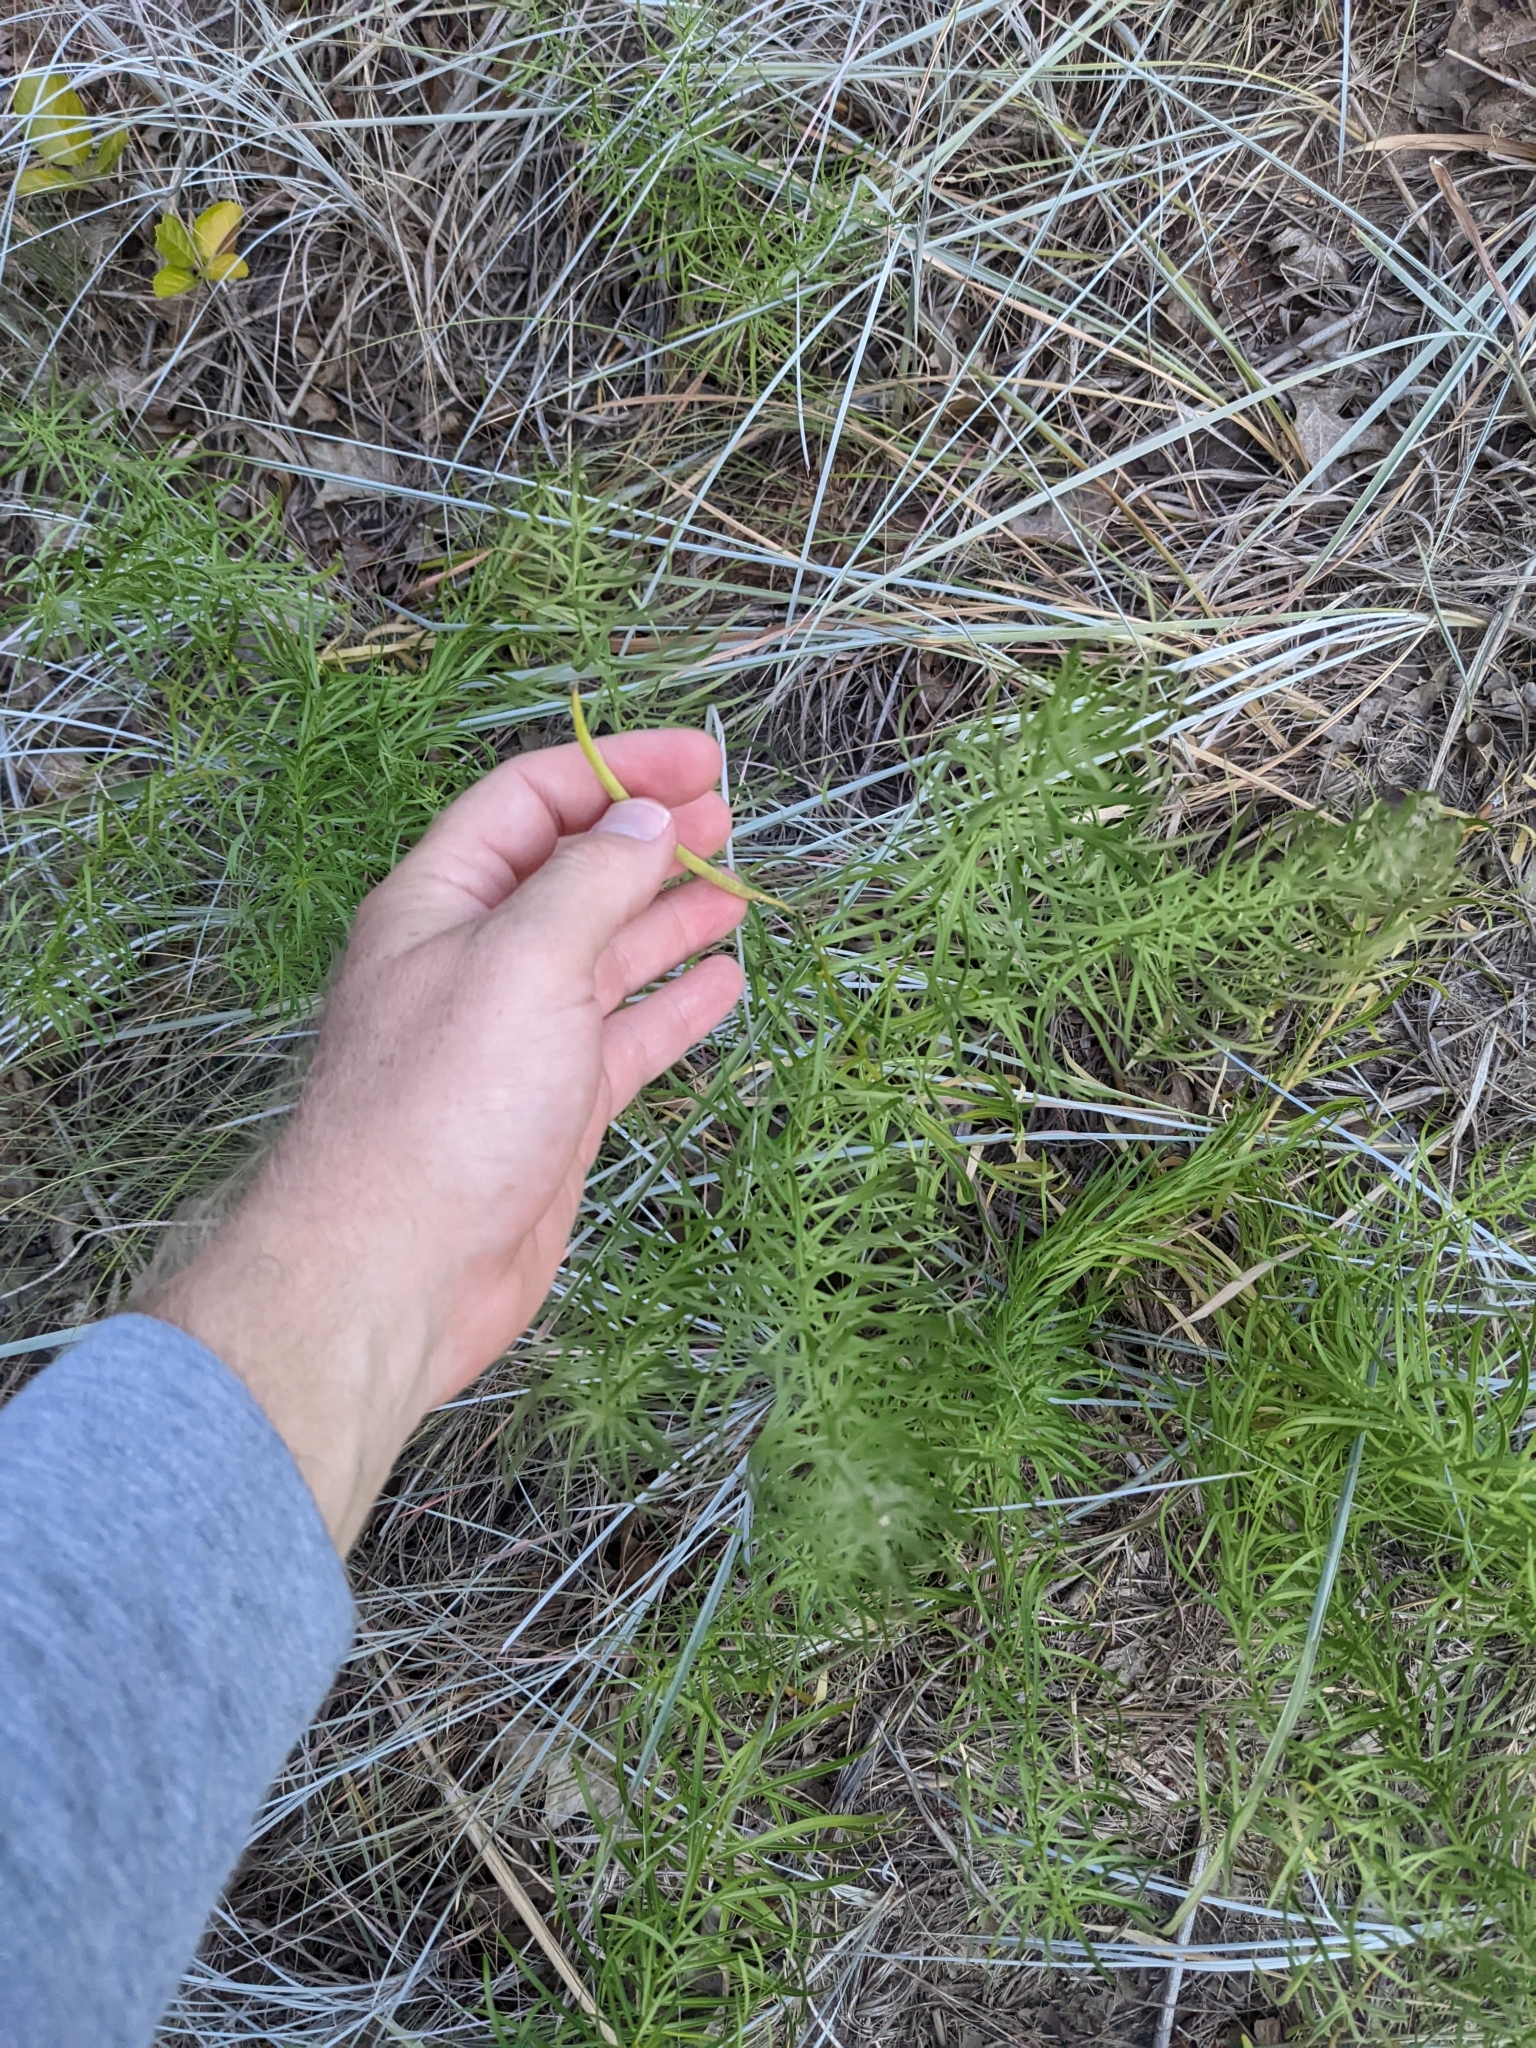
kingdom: Plantae
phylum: Tracheophyta
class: Magnoliopsida
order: Gentianales
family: Apocynaceae
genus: Amsonia
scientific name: Amsonia ciliata
